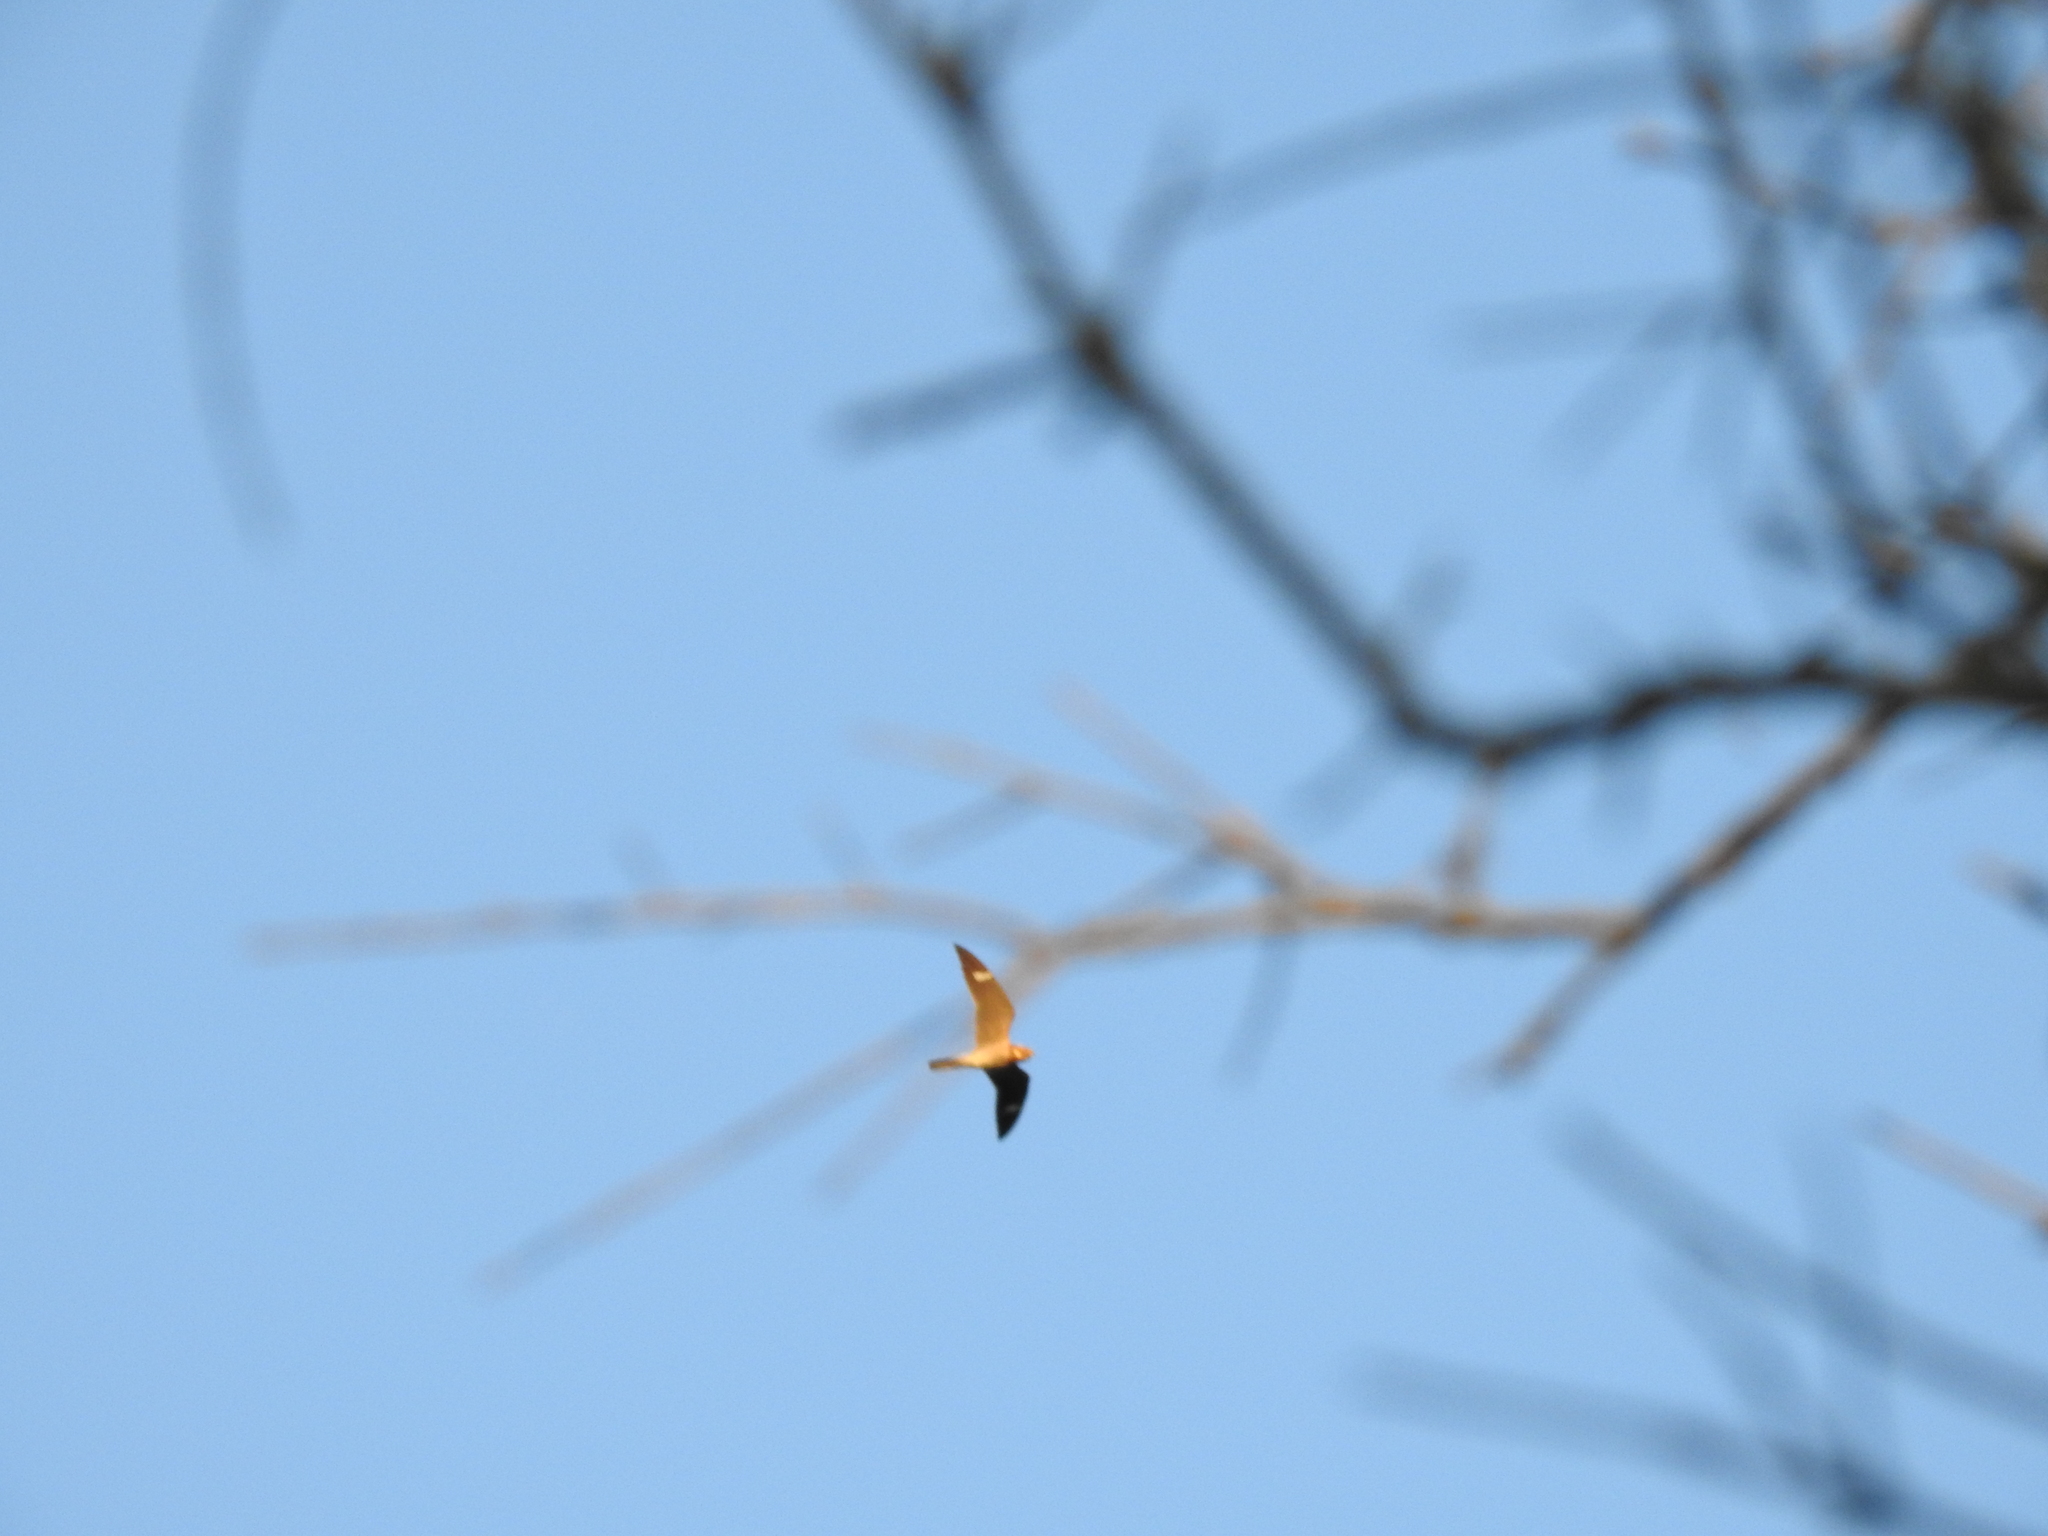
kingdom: Animalia
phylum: Chordata
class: Aves
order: Caprimulgiformes
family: Caprimulgidae
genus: Chordeiles
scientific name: Chordeiles minor
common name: Common nighthawk
